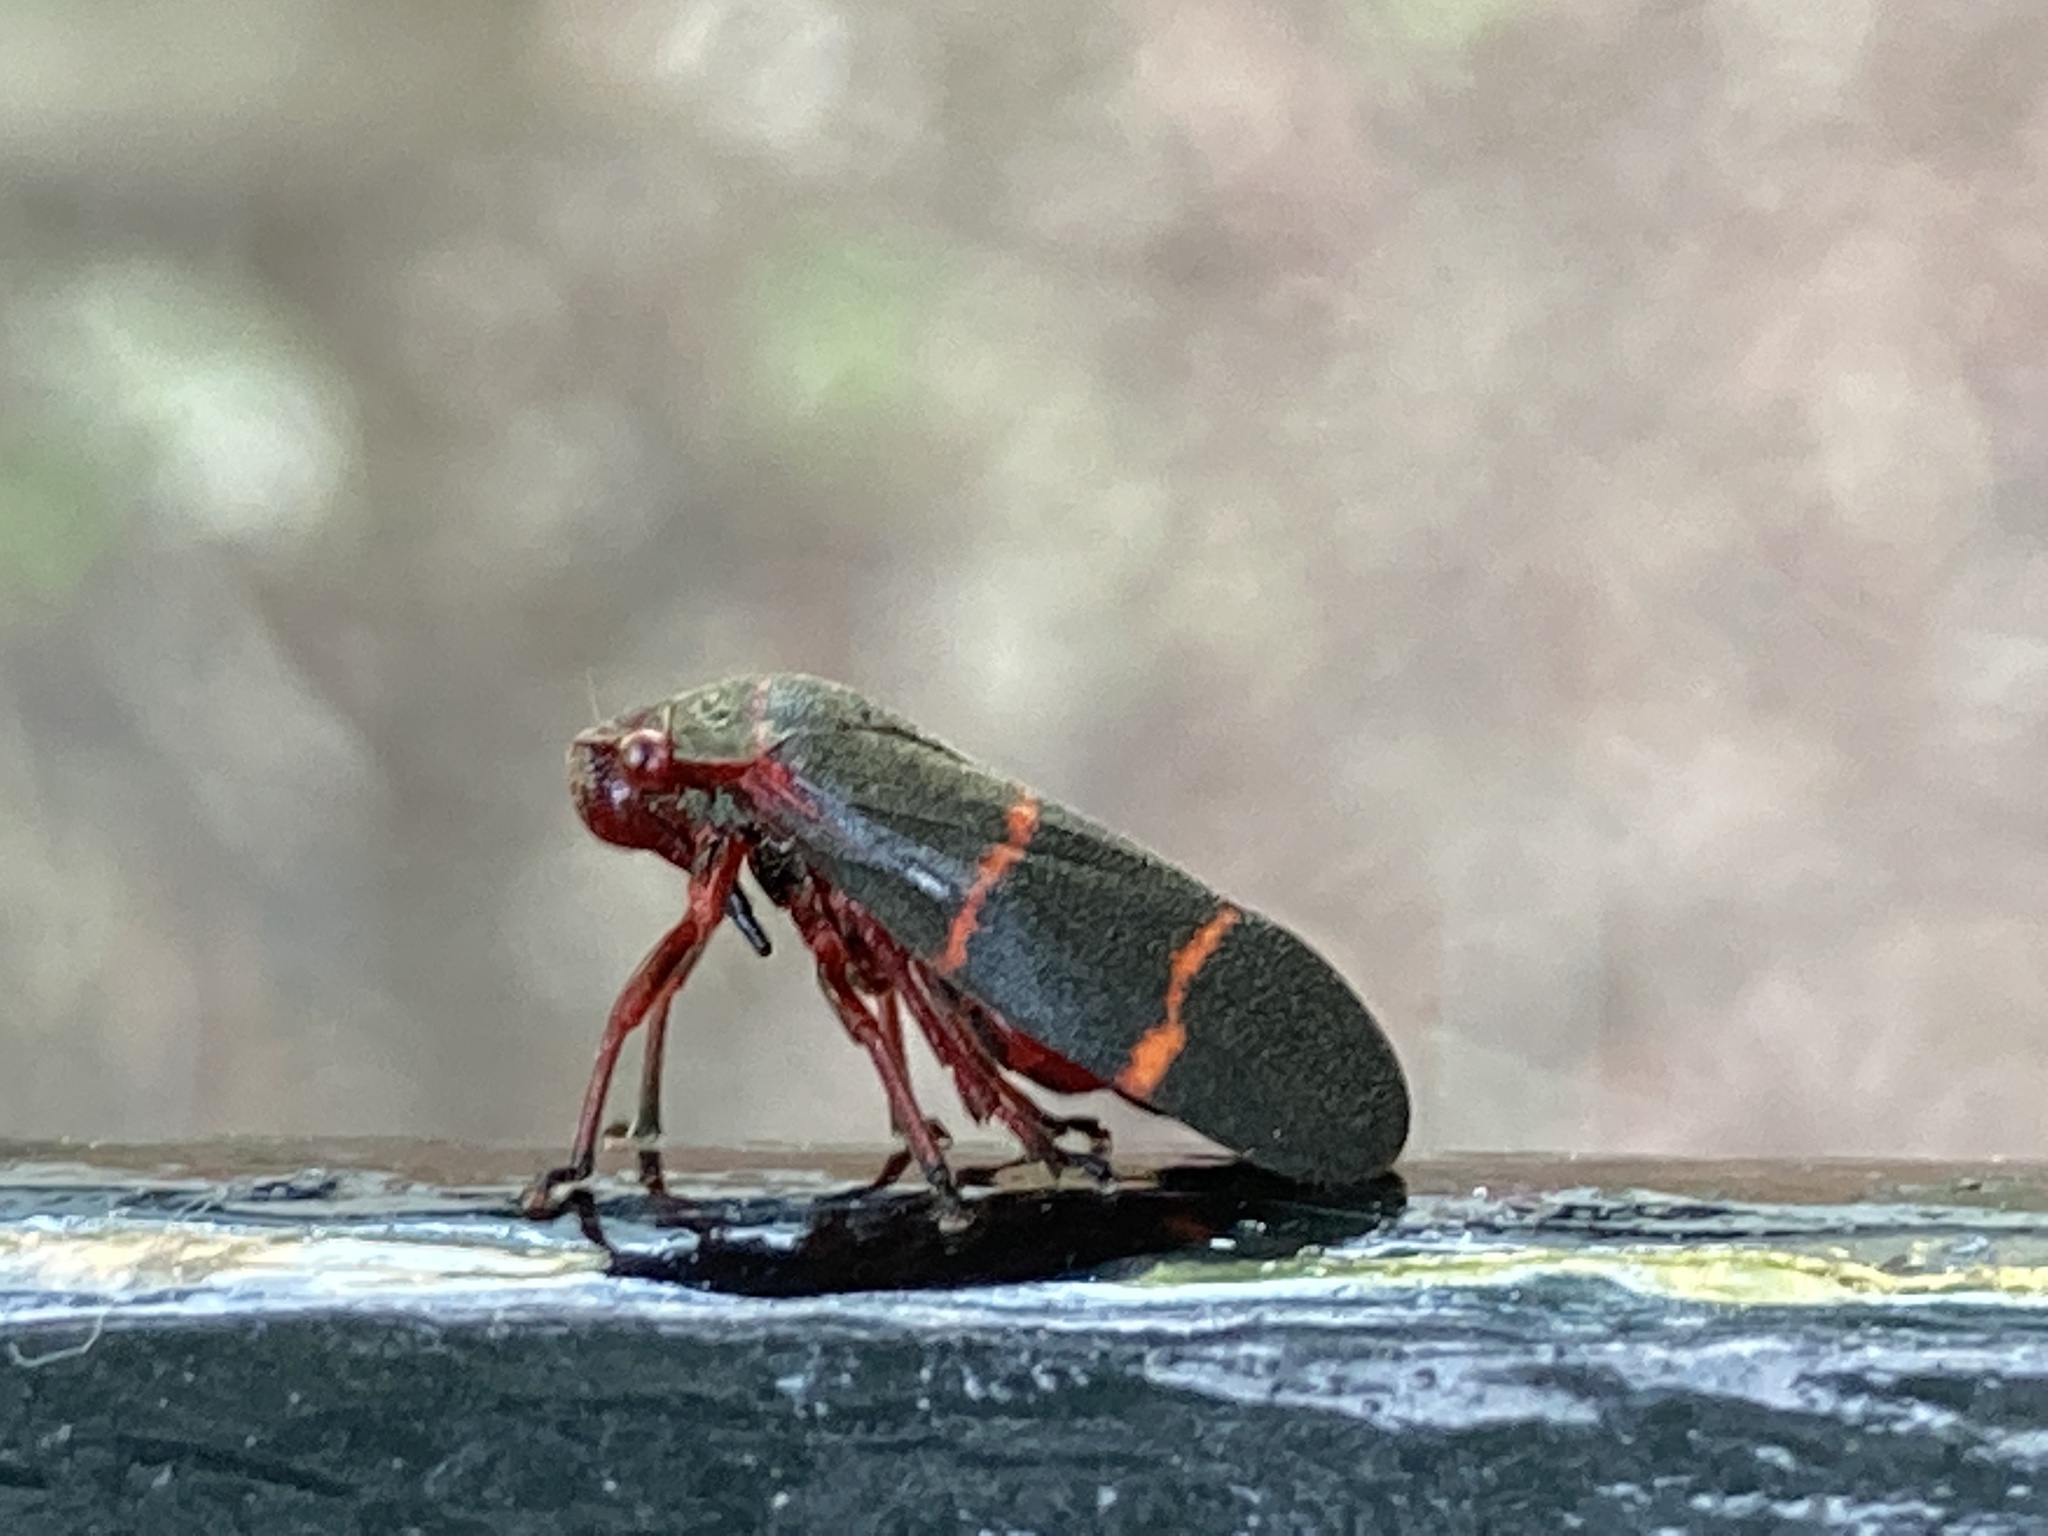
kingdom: Animalia
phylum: Arthropoda
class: Insecta
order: Hemiptera
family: Cercopidae
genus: Prosapia
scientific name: Prosapia bicincta
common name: Twolined spittlebug
